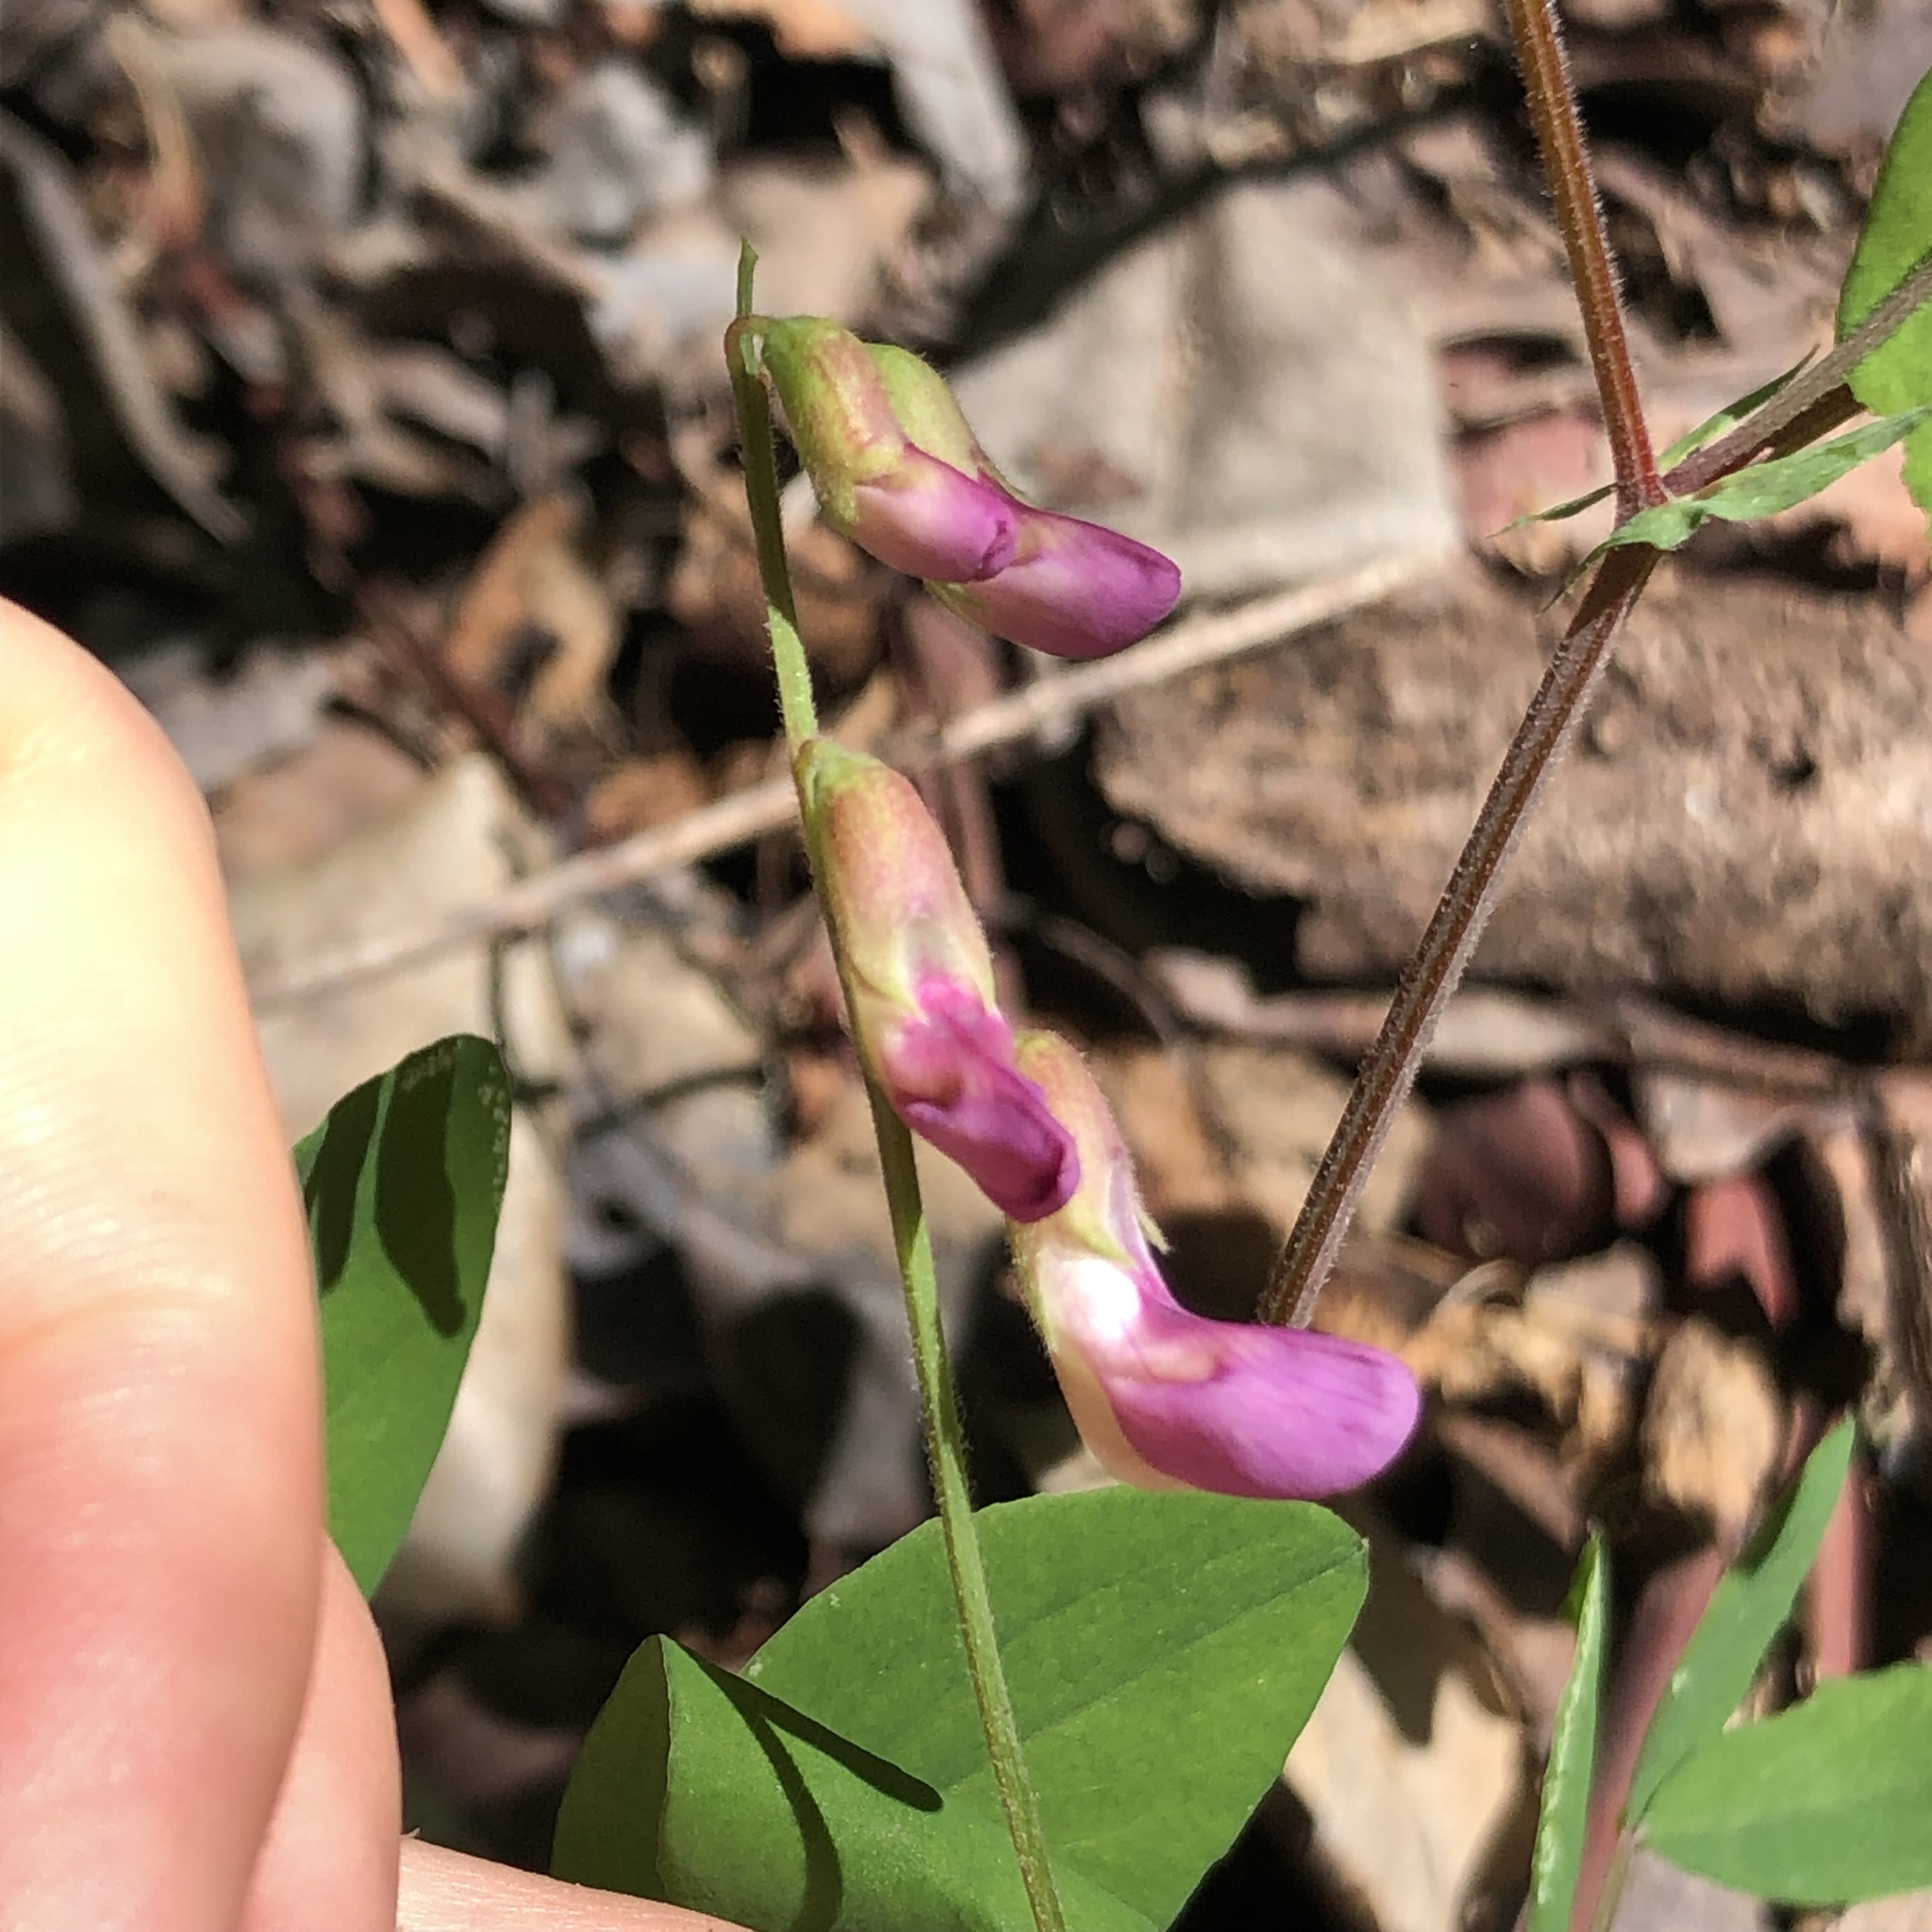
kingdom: Plantae
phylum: Tracheophyta
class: Magnoliopsida
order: Fabales
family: Fabaceae
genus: Lathyrus
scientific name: Lathyrus nevadensis
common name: Sierra nevada peavine
